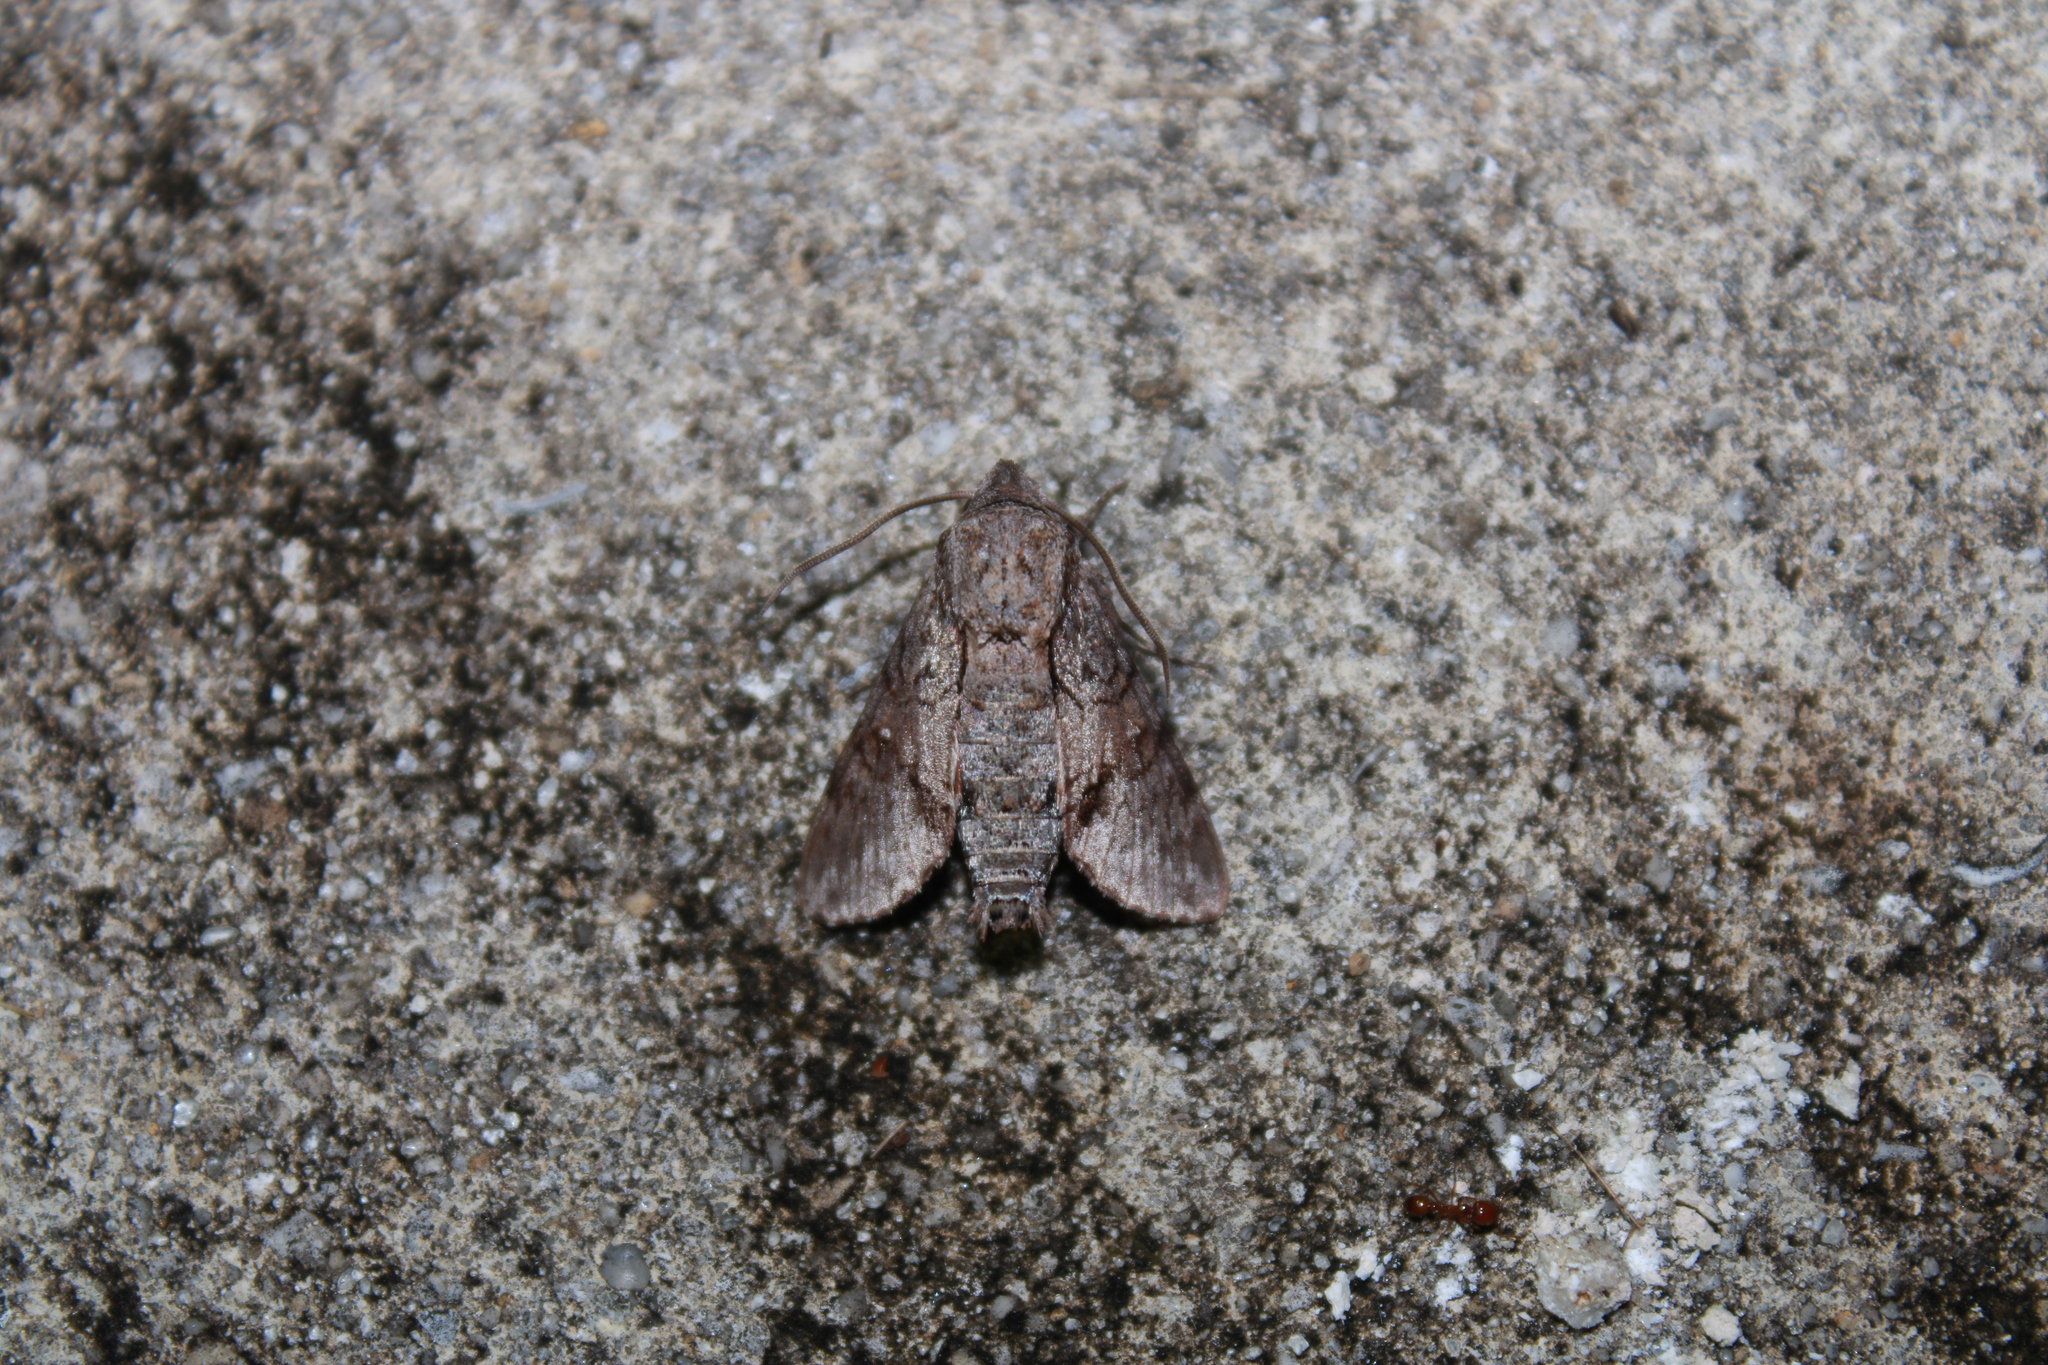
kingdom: Animalia
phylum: Arthropoda
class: Insecta
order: Lepidoptera
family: Sphingidae
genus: Cautethia
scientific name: Cautethia grotei
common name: Grote's sphinx
